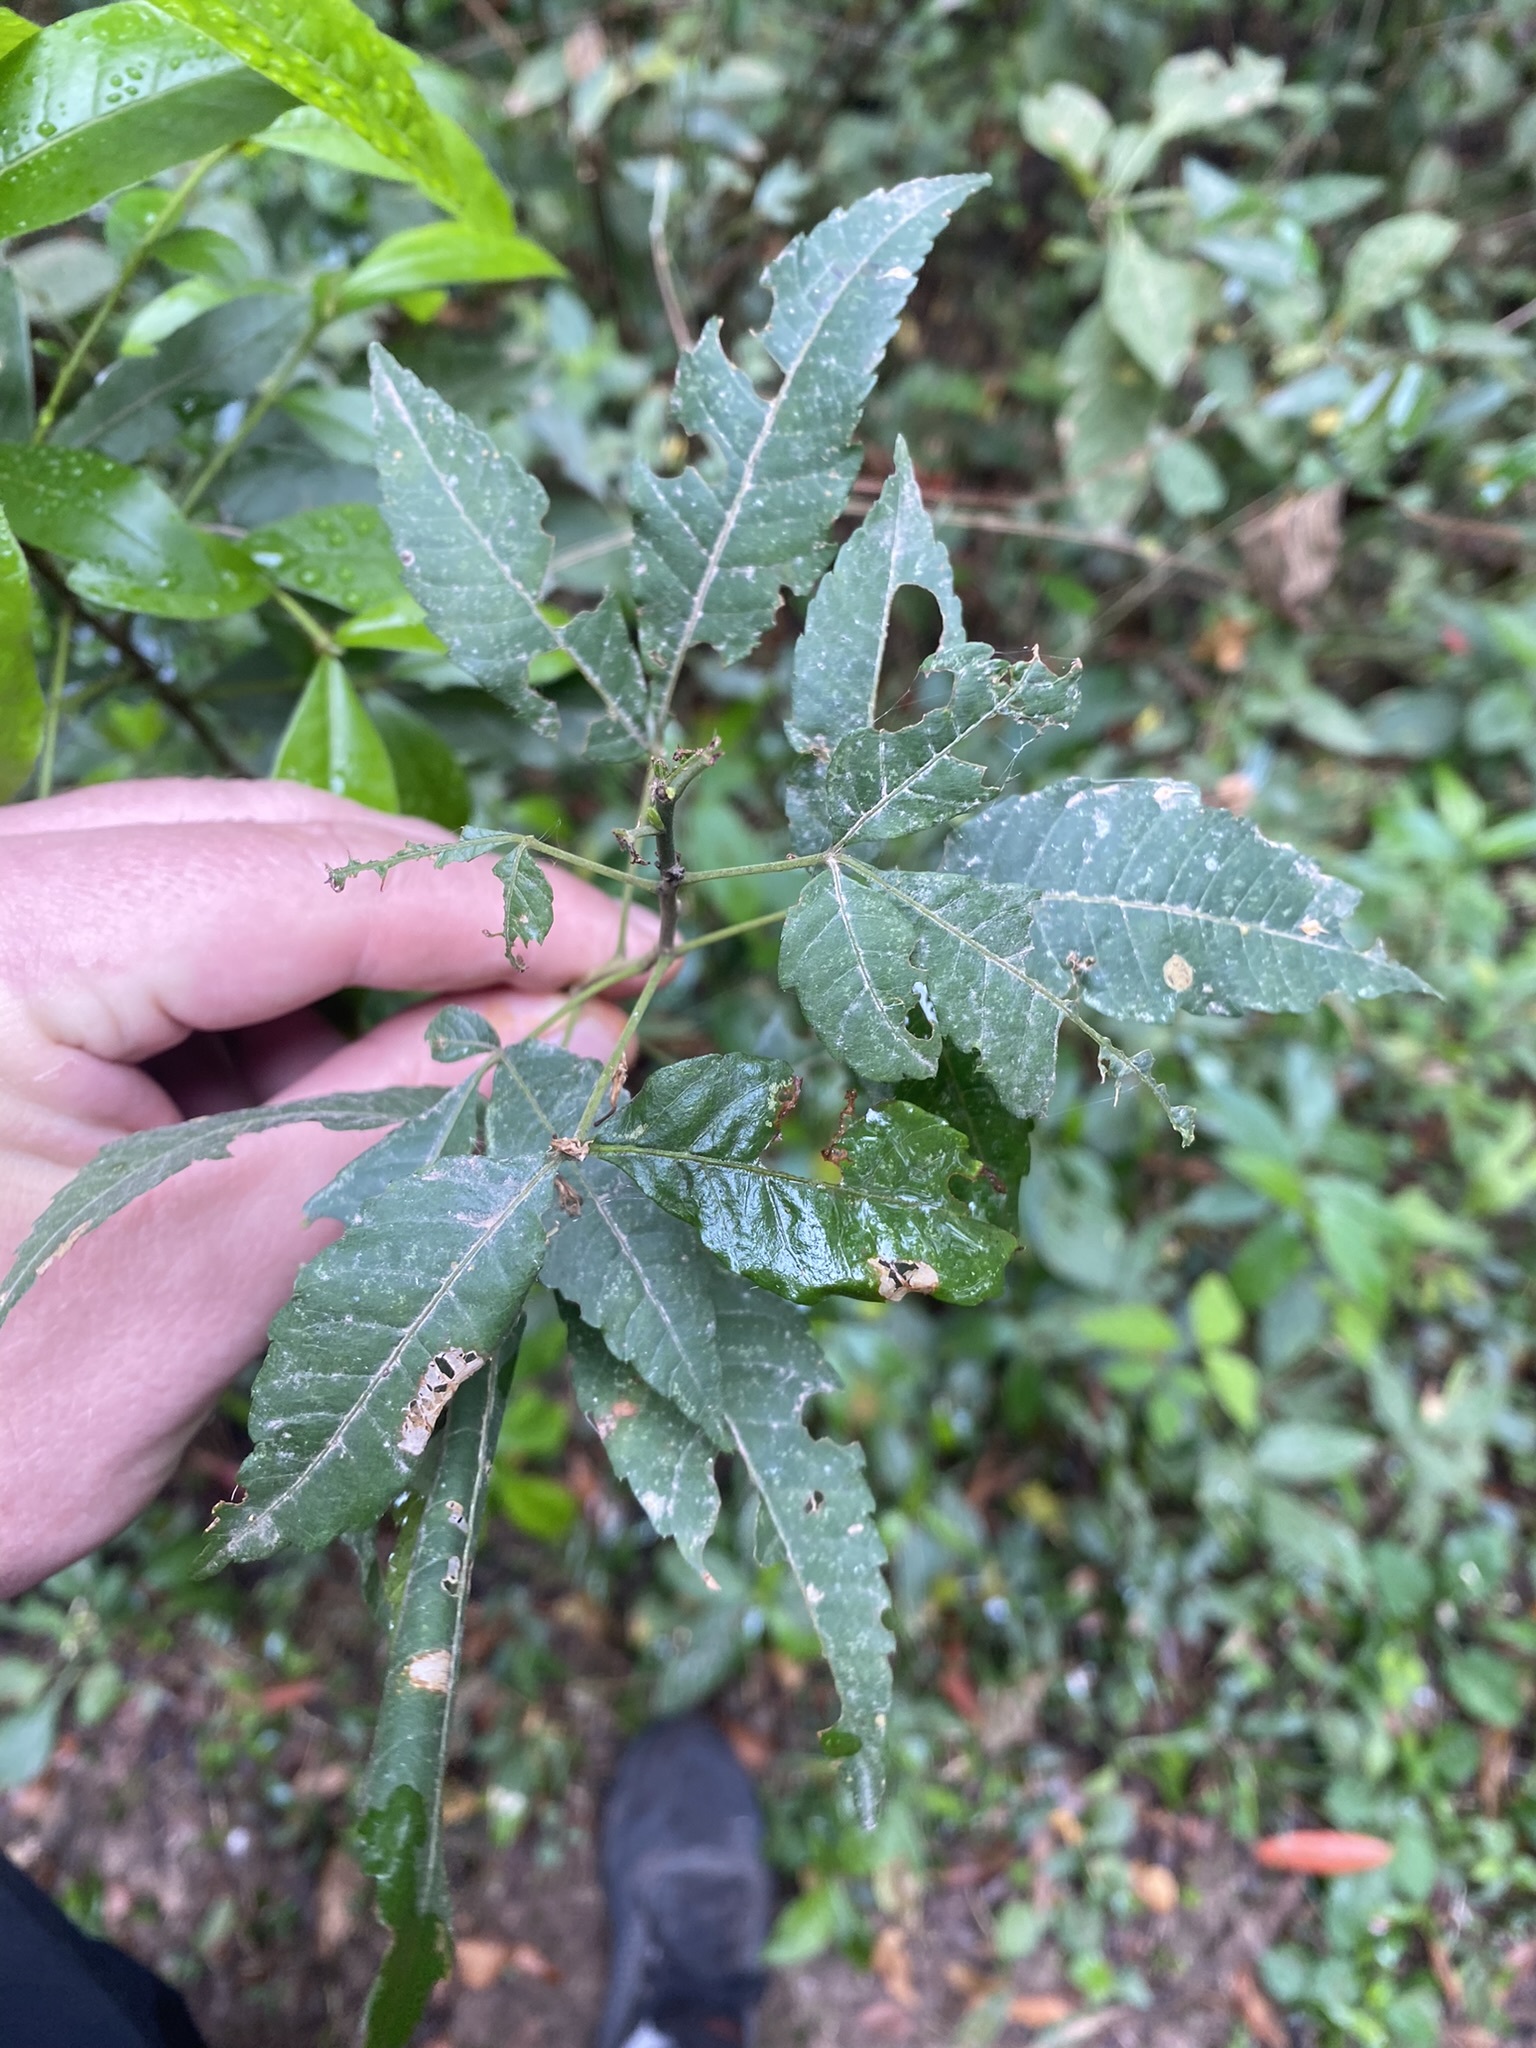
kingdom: Plantae
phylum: Tracheophyta
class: Magnoliopsida
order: Sapindales
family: Sapindaceae
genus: Allophylus
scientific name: Allophylus edulis
